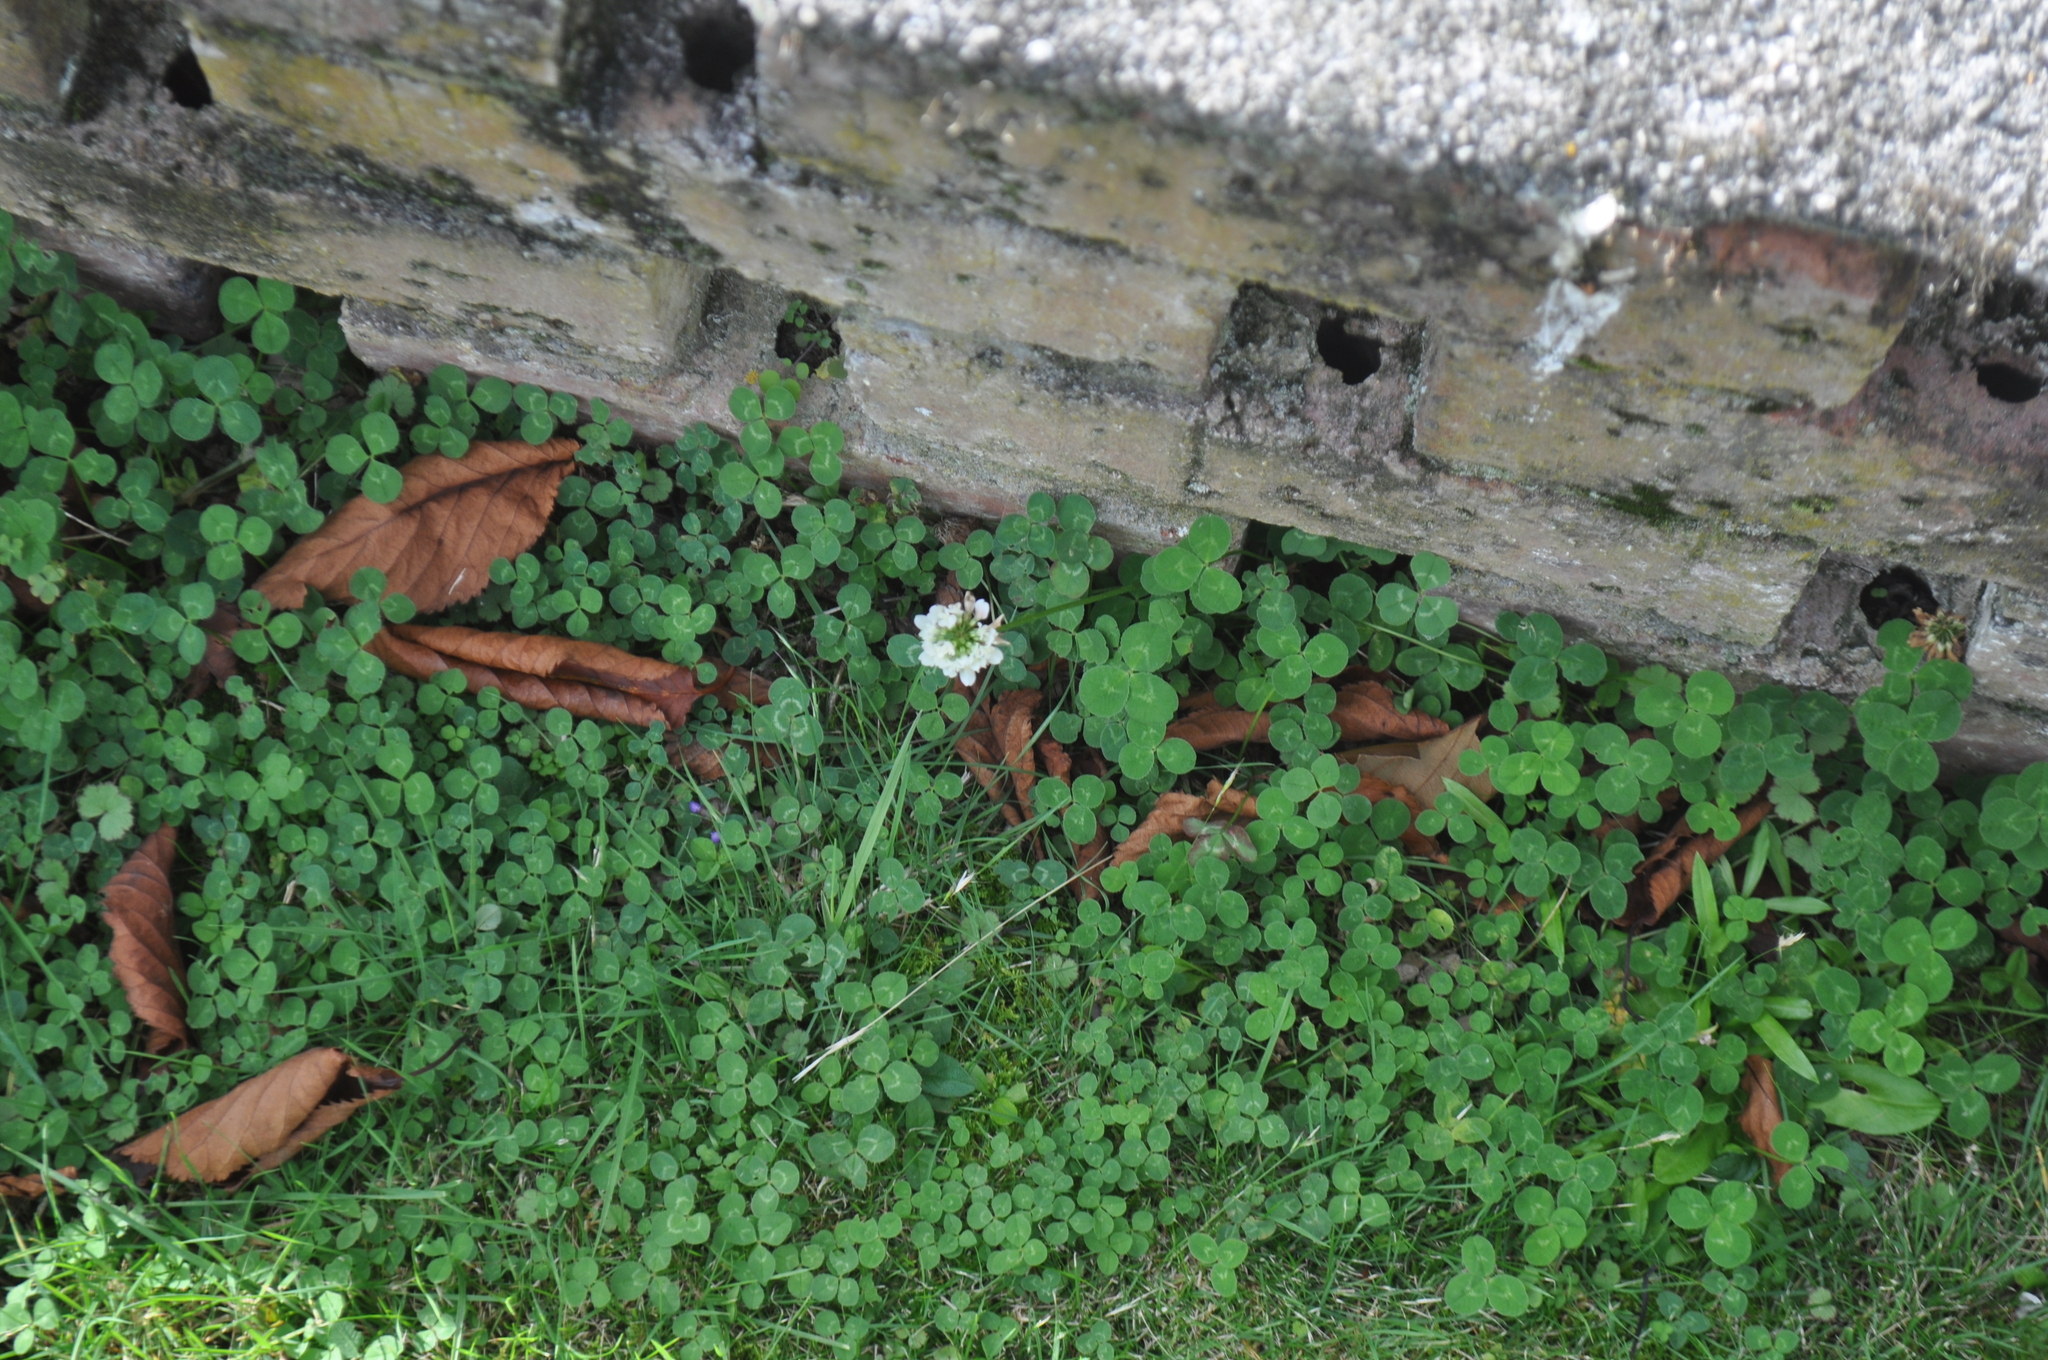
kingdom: Plantae
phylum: Tracheophyta
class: Magnoliopsida
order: Fabales
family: Fabaceae
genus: Trifolium
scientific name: Trifolium repens
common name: White clover
